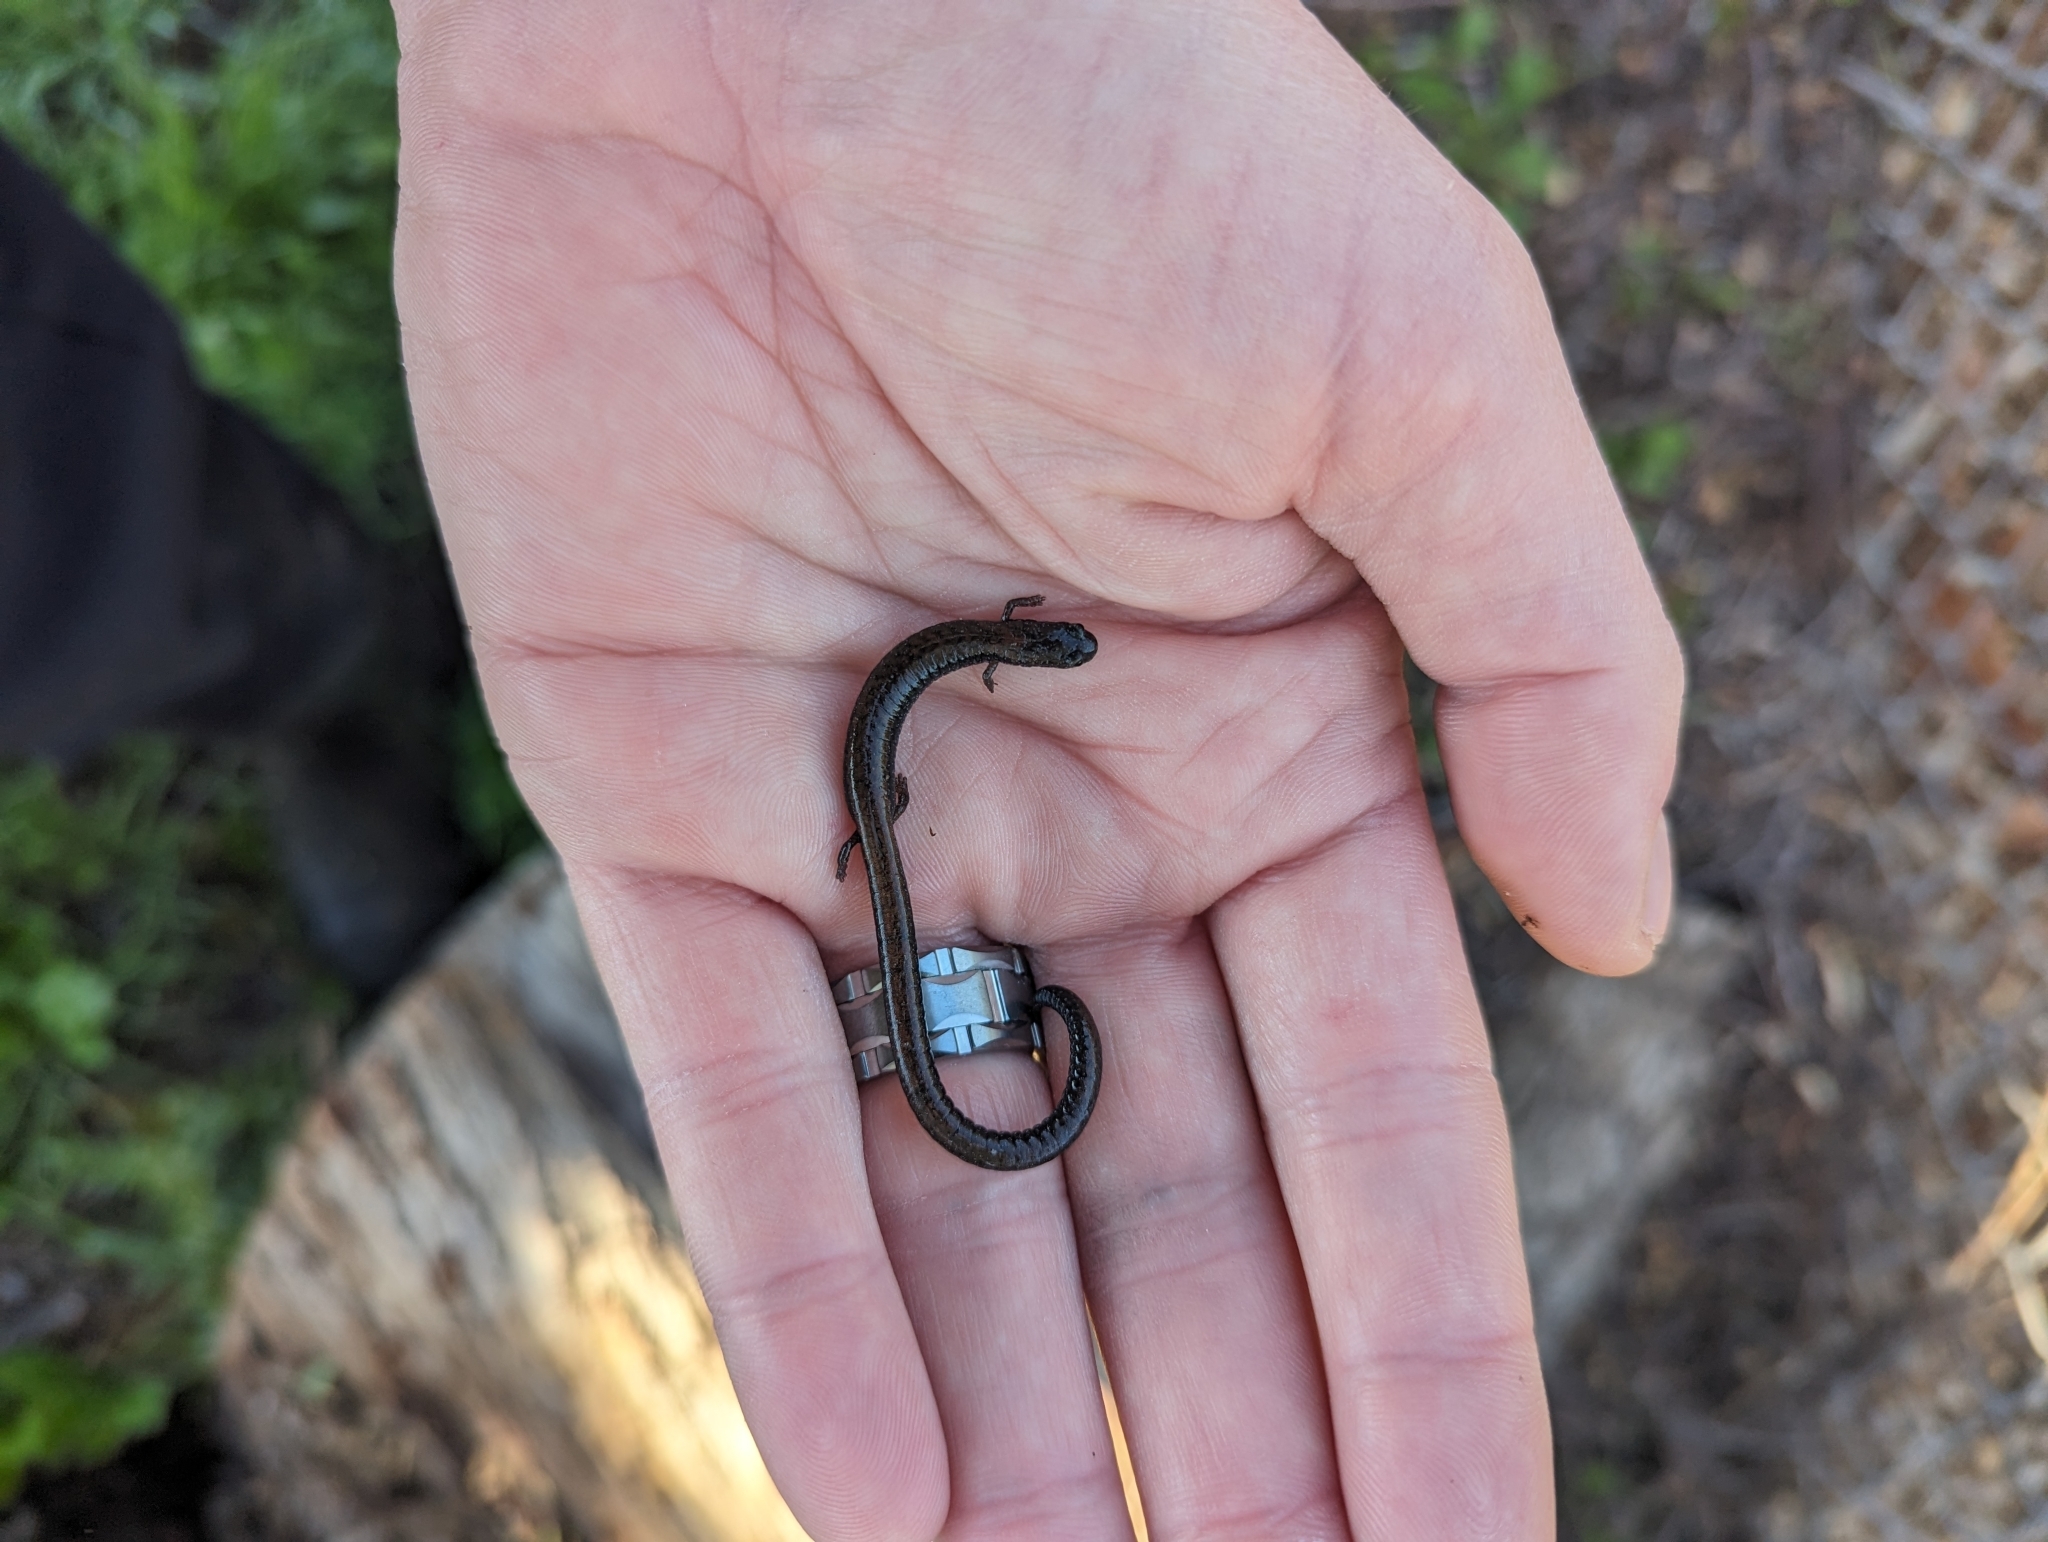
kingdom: Animalia
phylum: Chordata
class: Amphibia
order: Caudata
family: Plethodontidae
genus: Batrachoseps
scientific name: Batrachoseps nigriventris
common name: Black-bellied slender salamander
